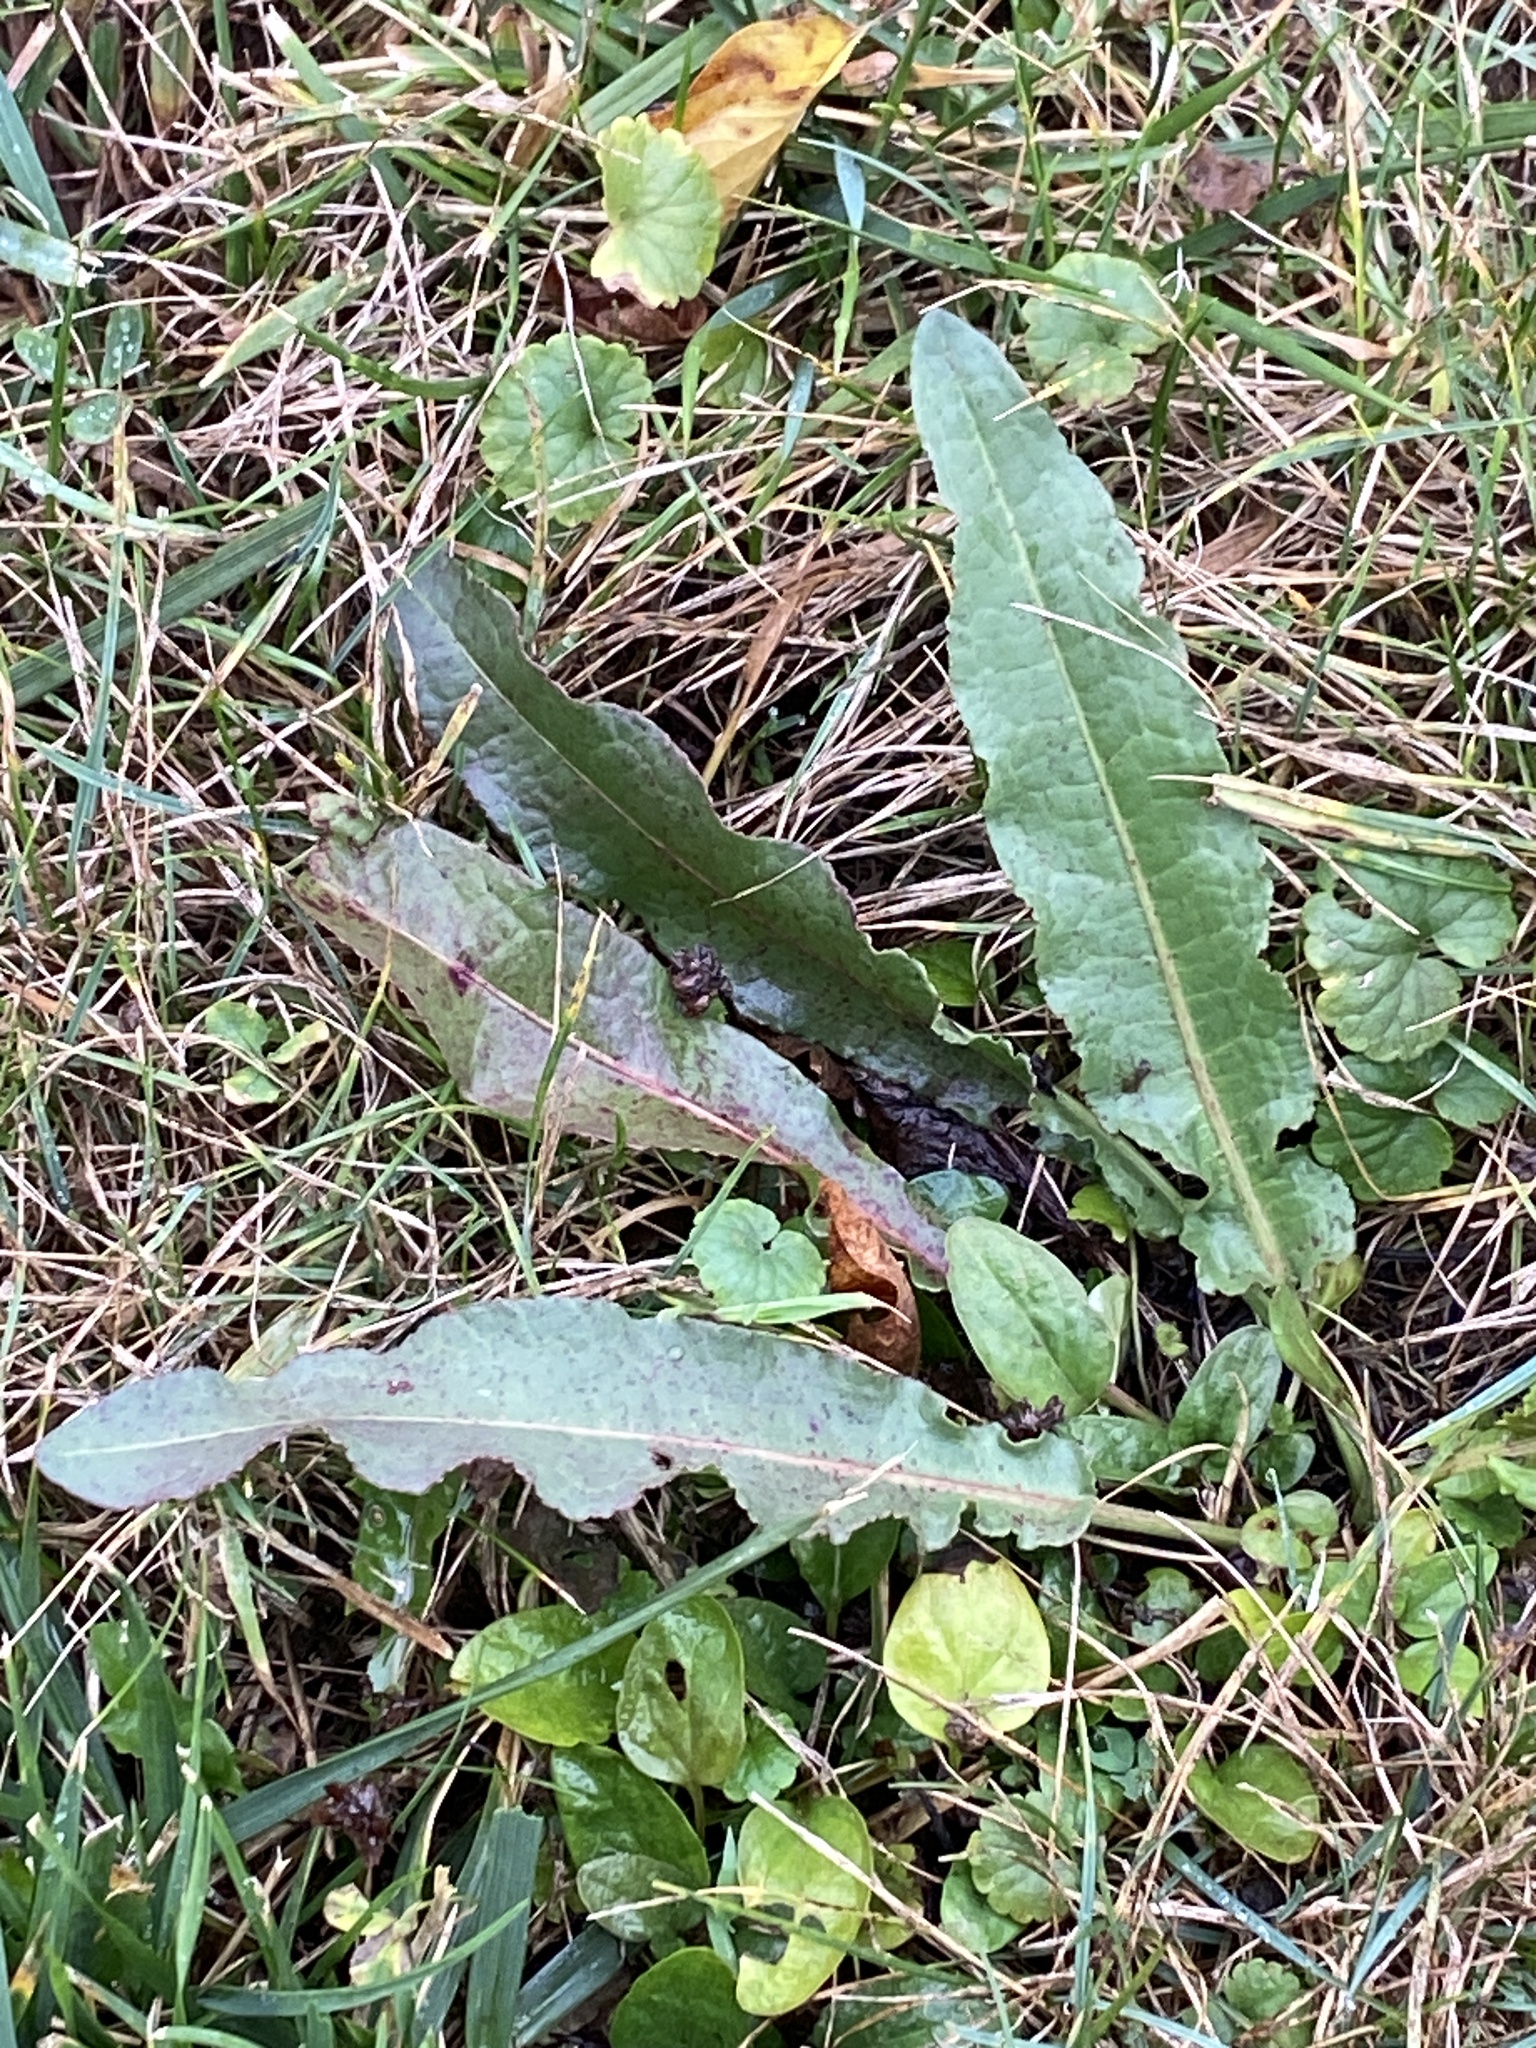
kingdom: Plantae
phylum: Tracheophyta
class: Magnoliopsida
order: Caryophyllales
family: Polygonaceae
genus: Rumex
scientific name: Rumex crispus
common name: Curled dock
